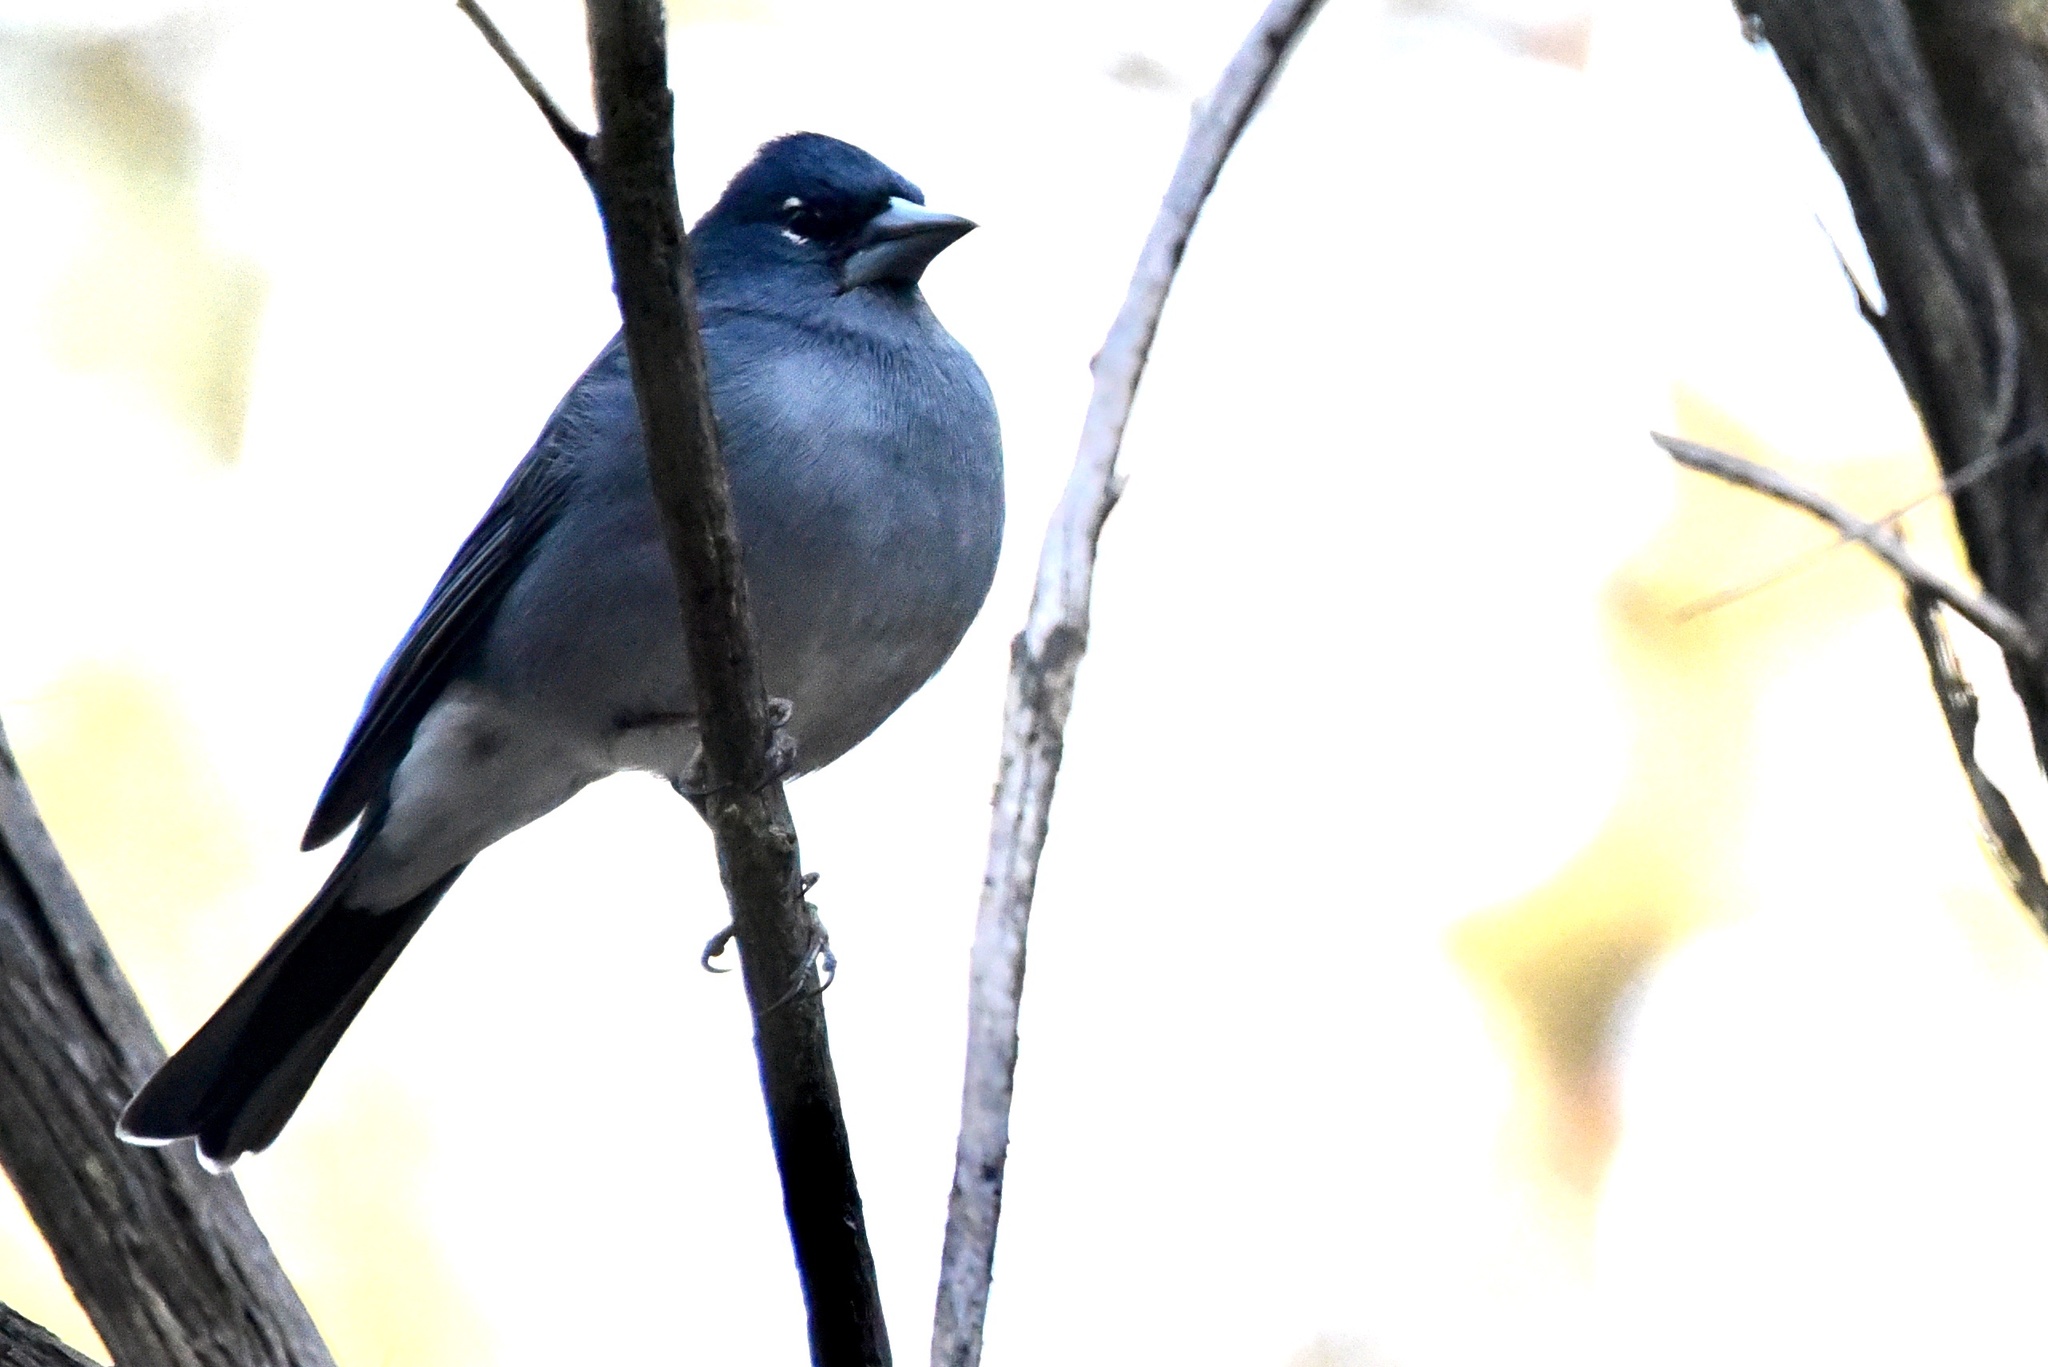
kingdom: Animalia
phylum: Chordata
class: Aves
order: Passeriformes
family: Fringillidae
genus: Fringilla
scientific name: Fringilla teydea
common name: Blue chaffinch
